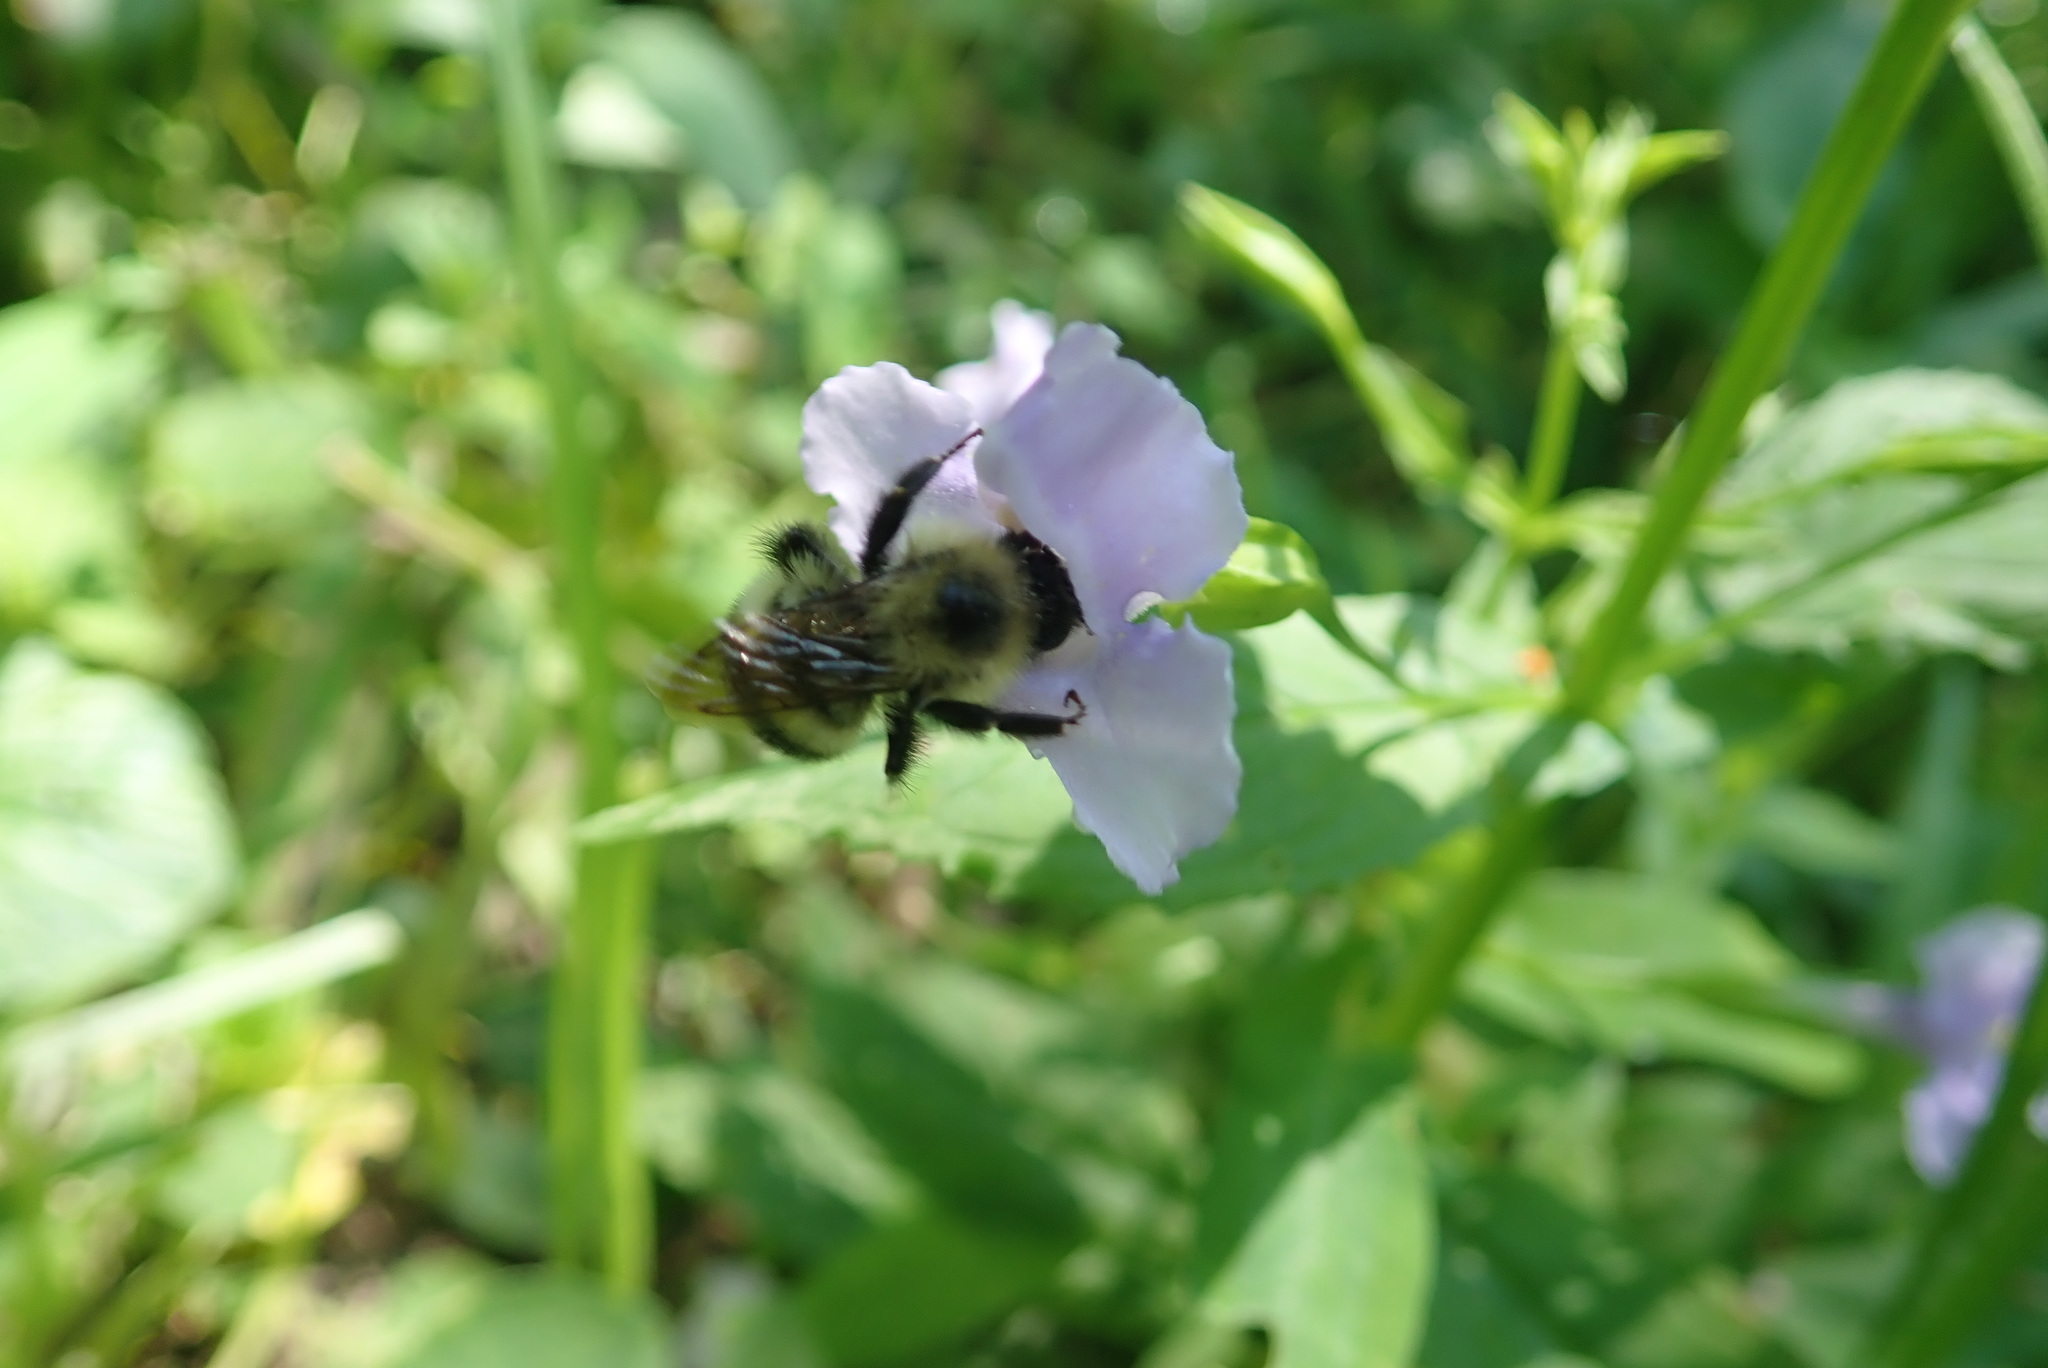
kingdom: Animalia
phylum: Arthropoda
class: Insecta
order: Hymenoptera
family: Apidae
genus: Pyrobombus
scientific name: Pyrobombus
